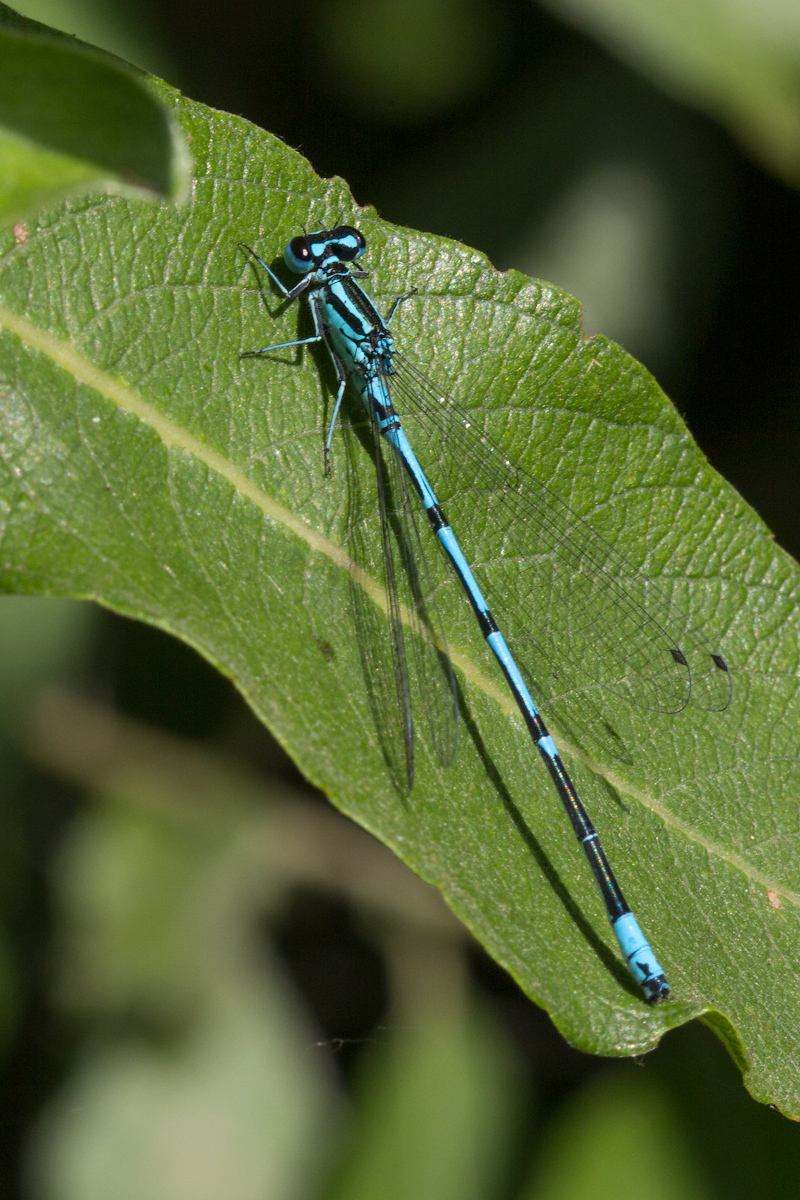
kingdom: Animalia
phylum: Arthropoda
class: Insecta
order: Odonata
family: Coenagrionidae
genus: Coenagrion
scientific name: Coenagrion puella
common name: Azure damselfly
